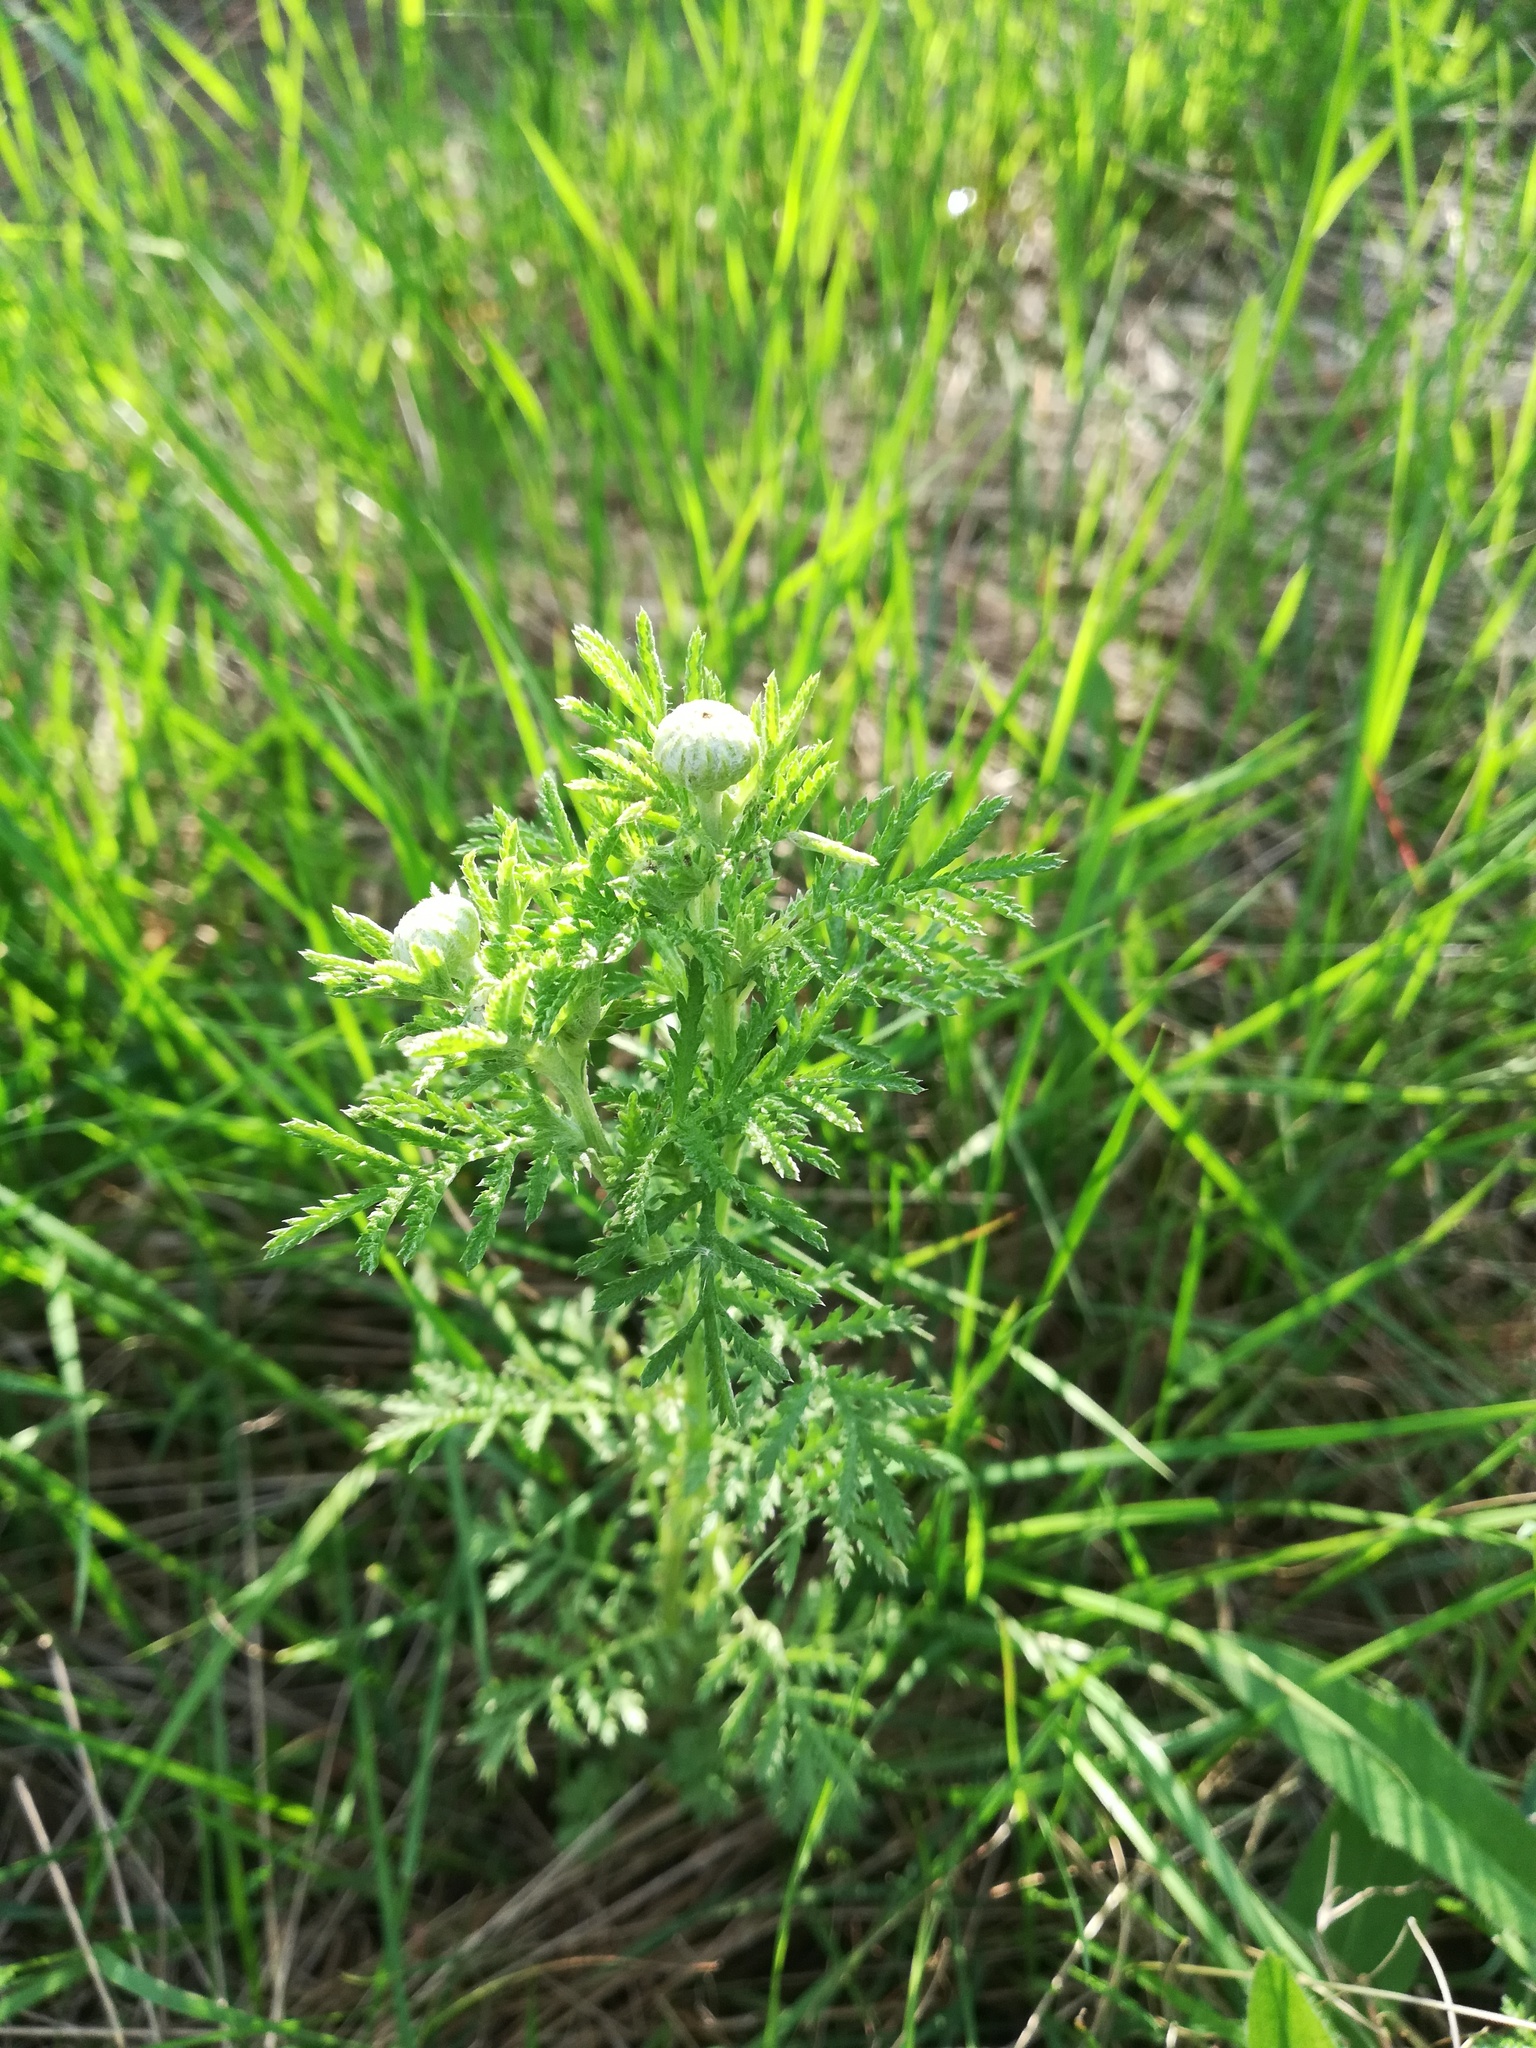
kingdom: Plantae
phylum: Tracheophyta
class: Magnoliopsida
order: Asterales
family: Asteraceae
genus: Cota
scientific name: Cota tinctoria
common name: Golden chamomile
